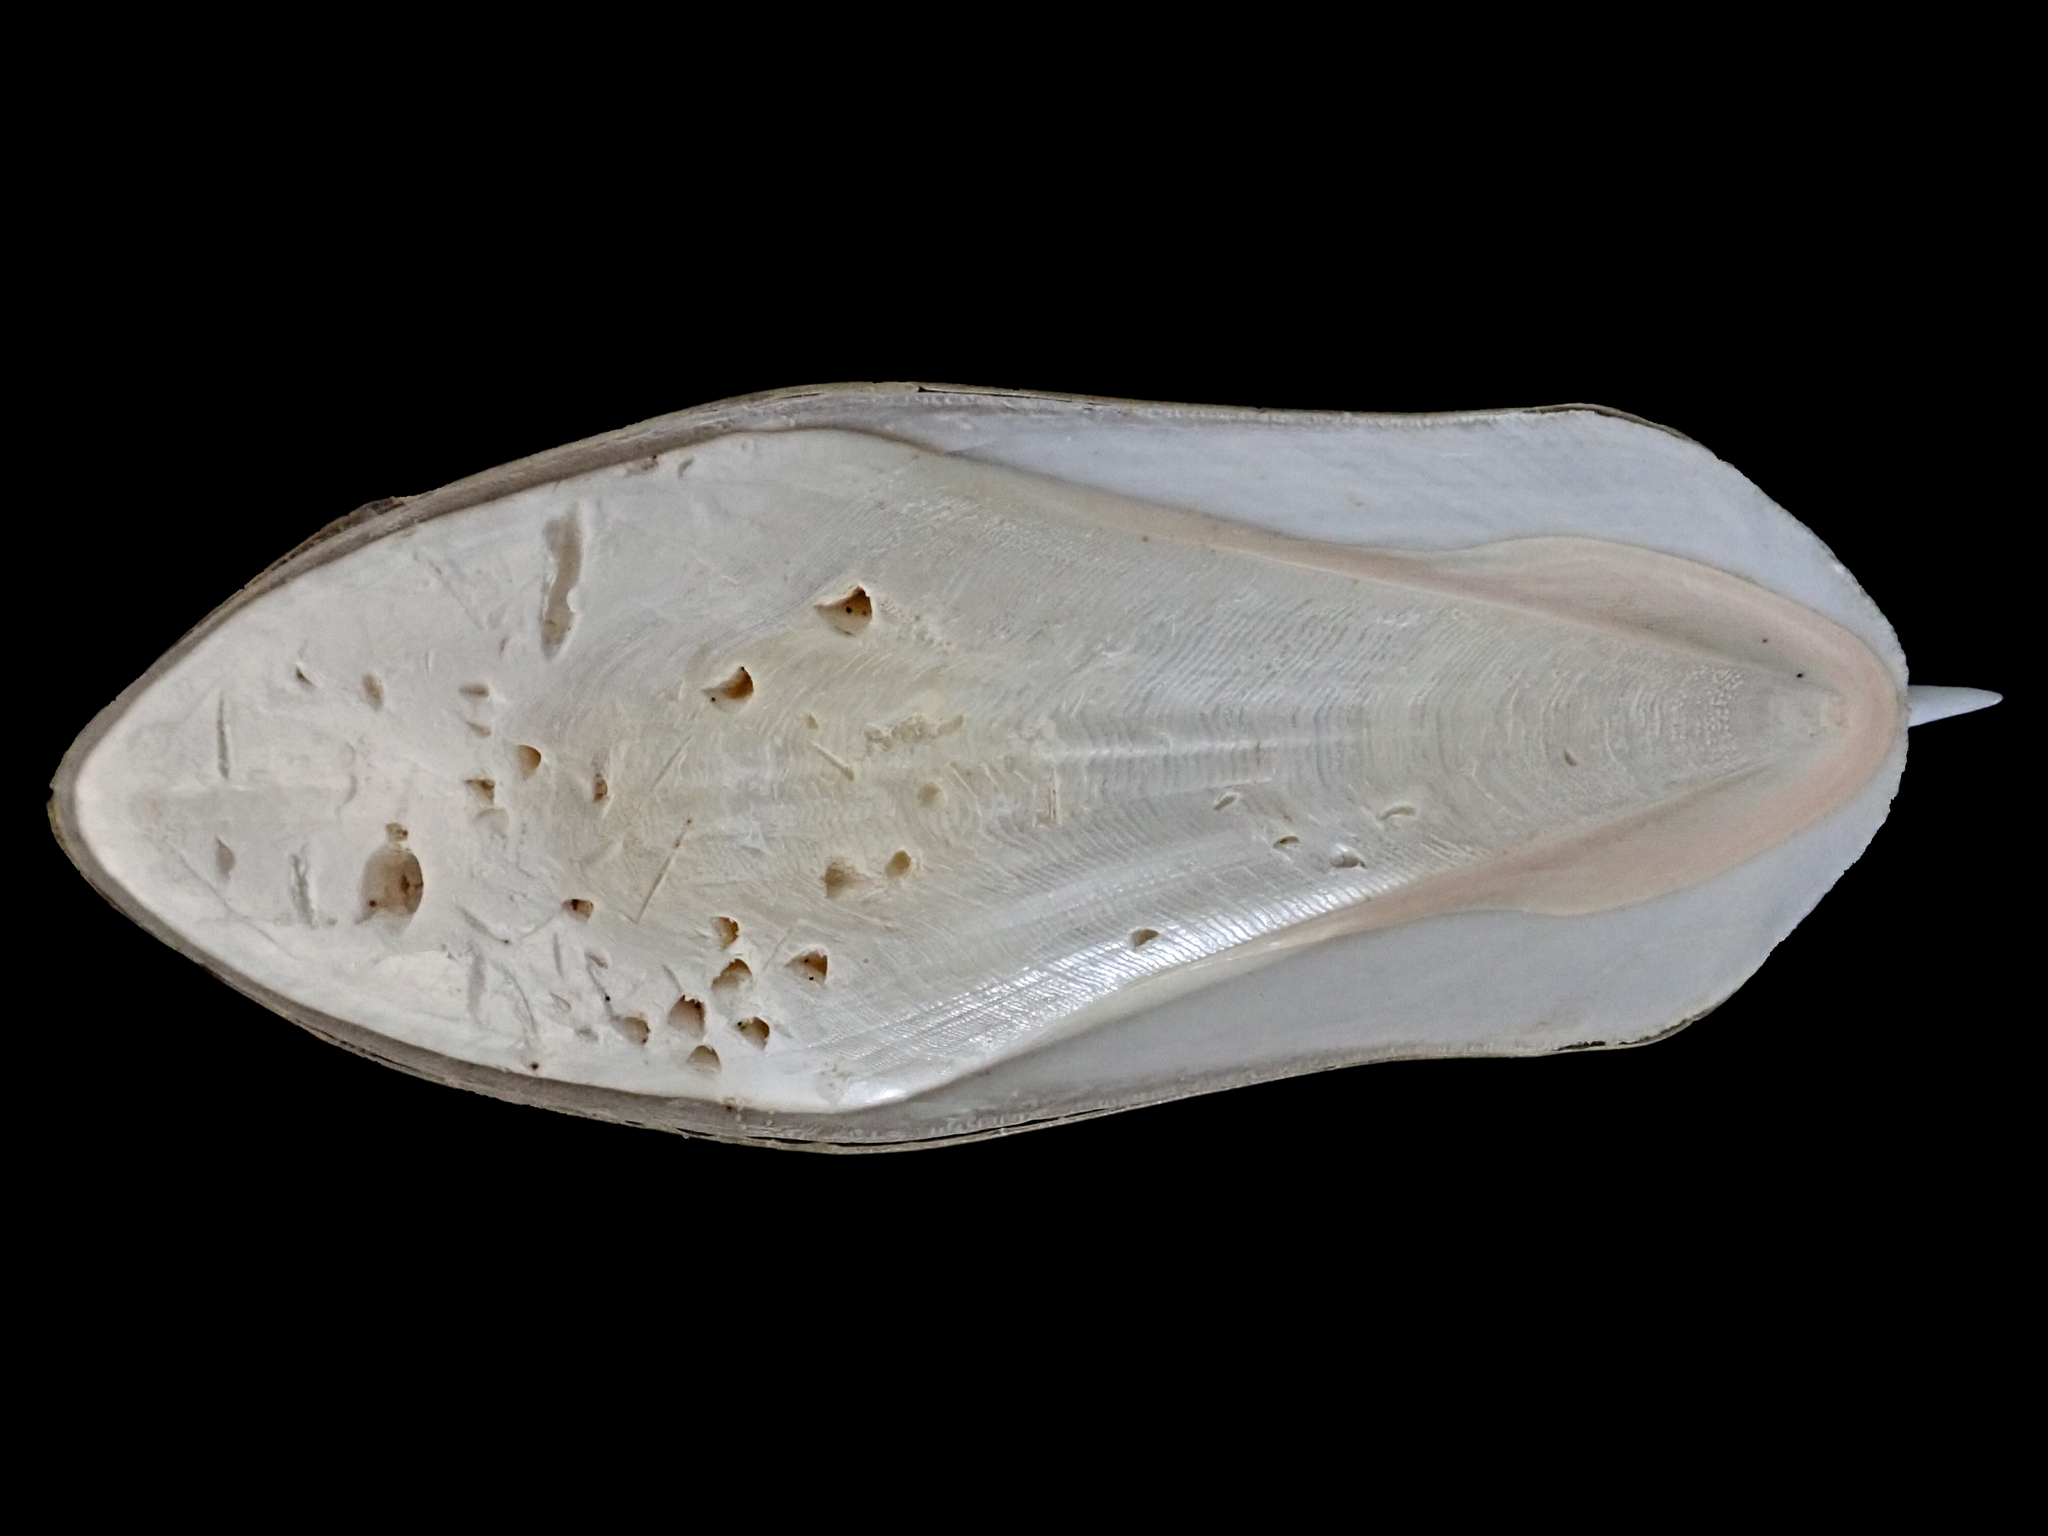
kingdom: Animalia
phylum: Mollusca
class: Cephalopoda
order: Sepiida
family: Sepiidae
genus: Sepia
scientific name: Sepia grahami
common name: Ken's cuttlefish
